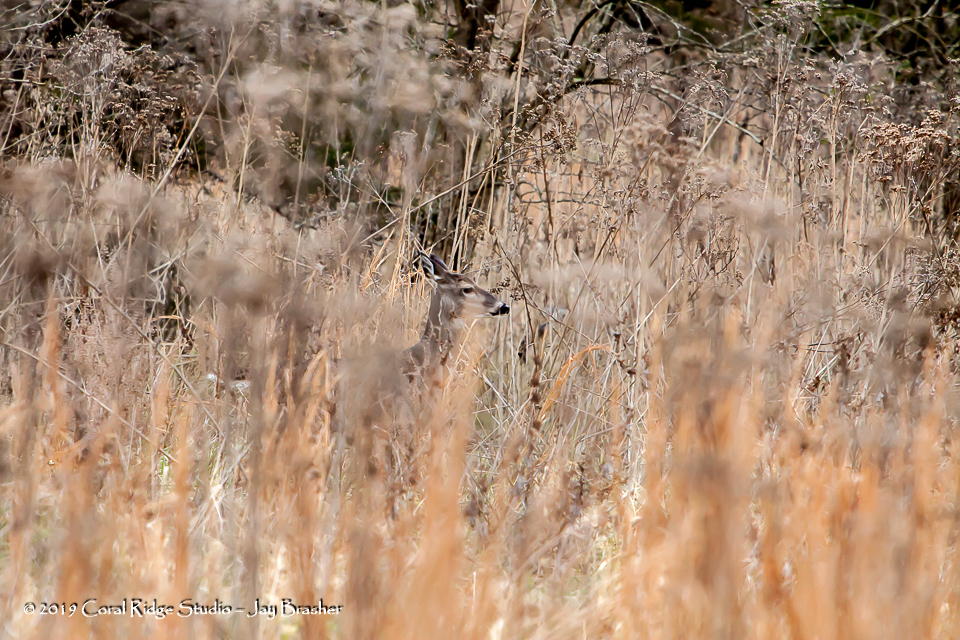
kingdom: Animalia
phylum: Chordata
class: Mammalia
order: Artiodactyla
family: Cervidae
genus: Odocoileus
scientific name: Odocoileus virginianus
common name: White-tailed deer
